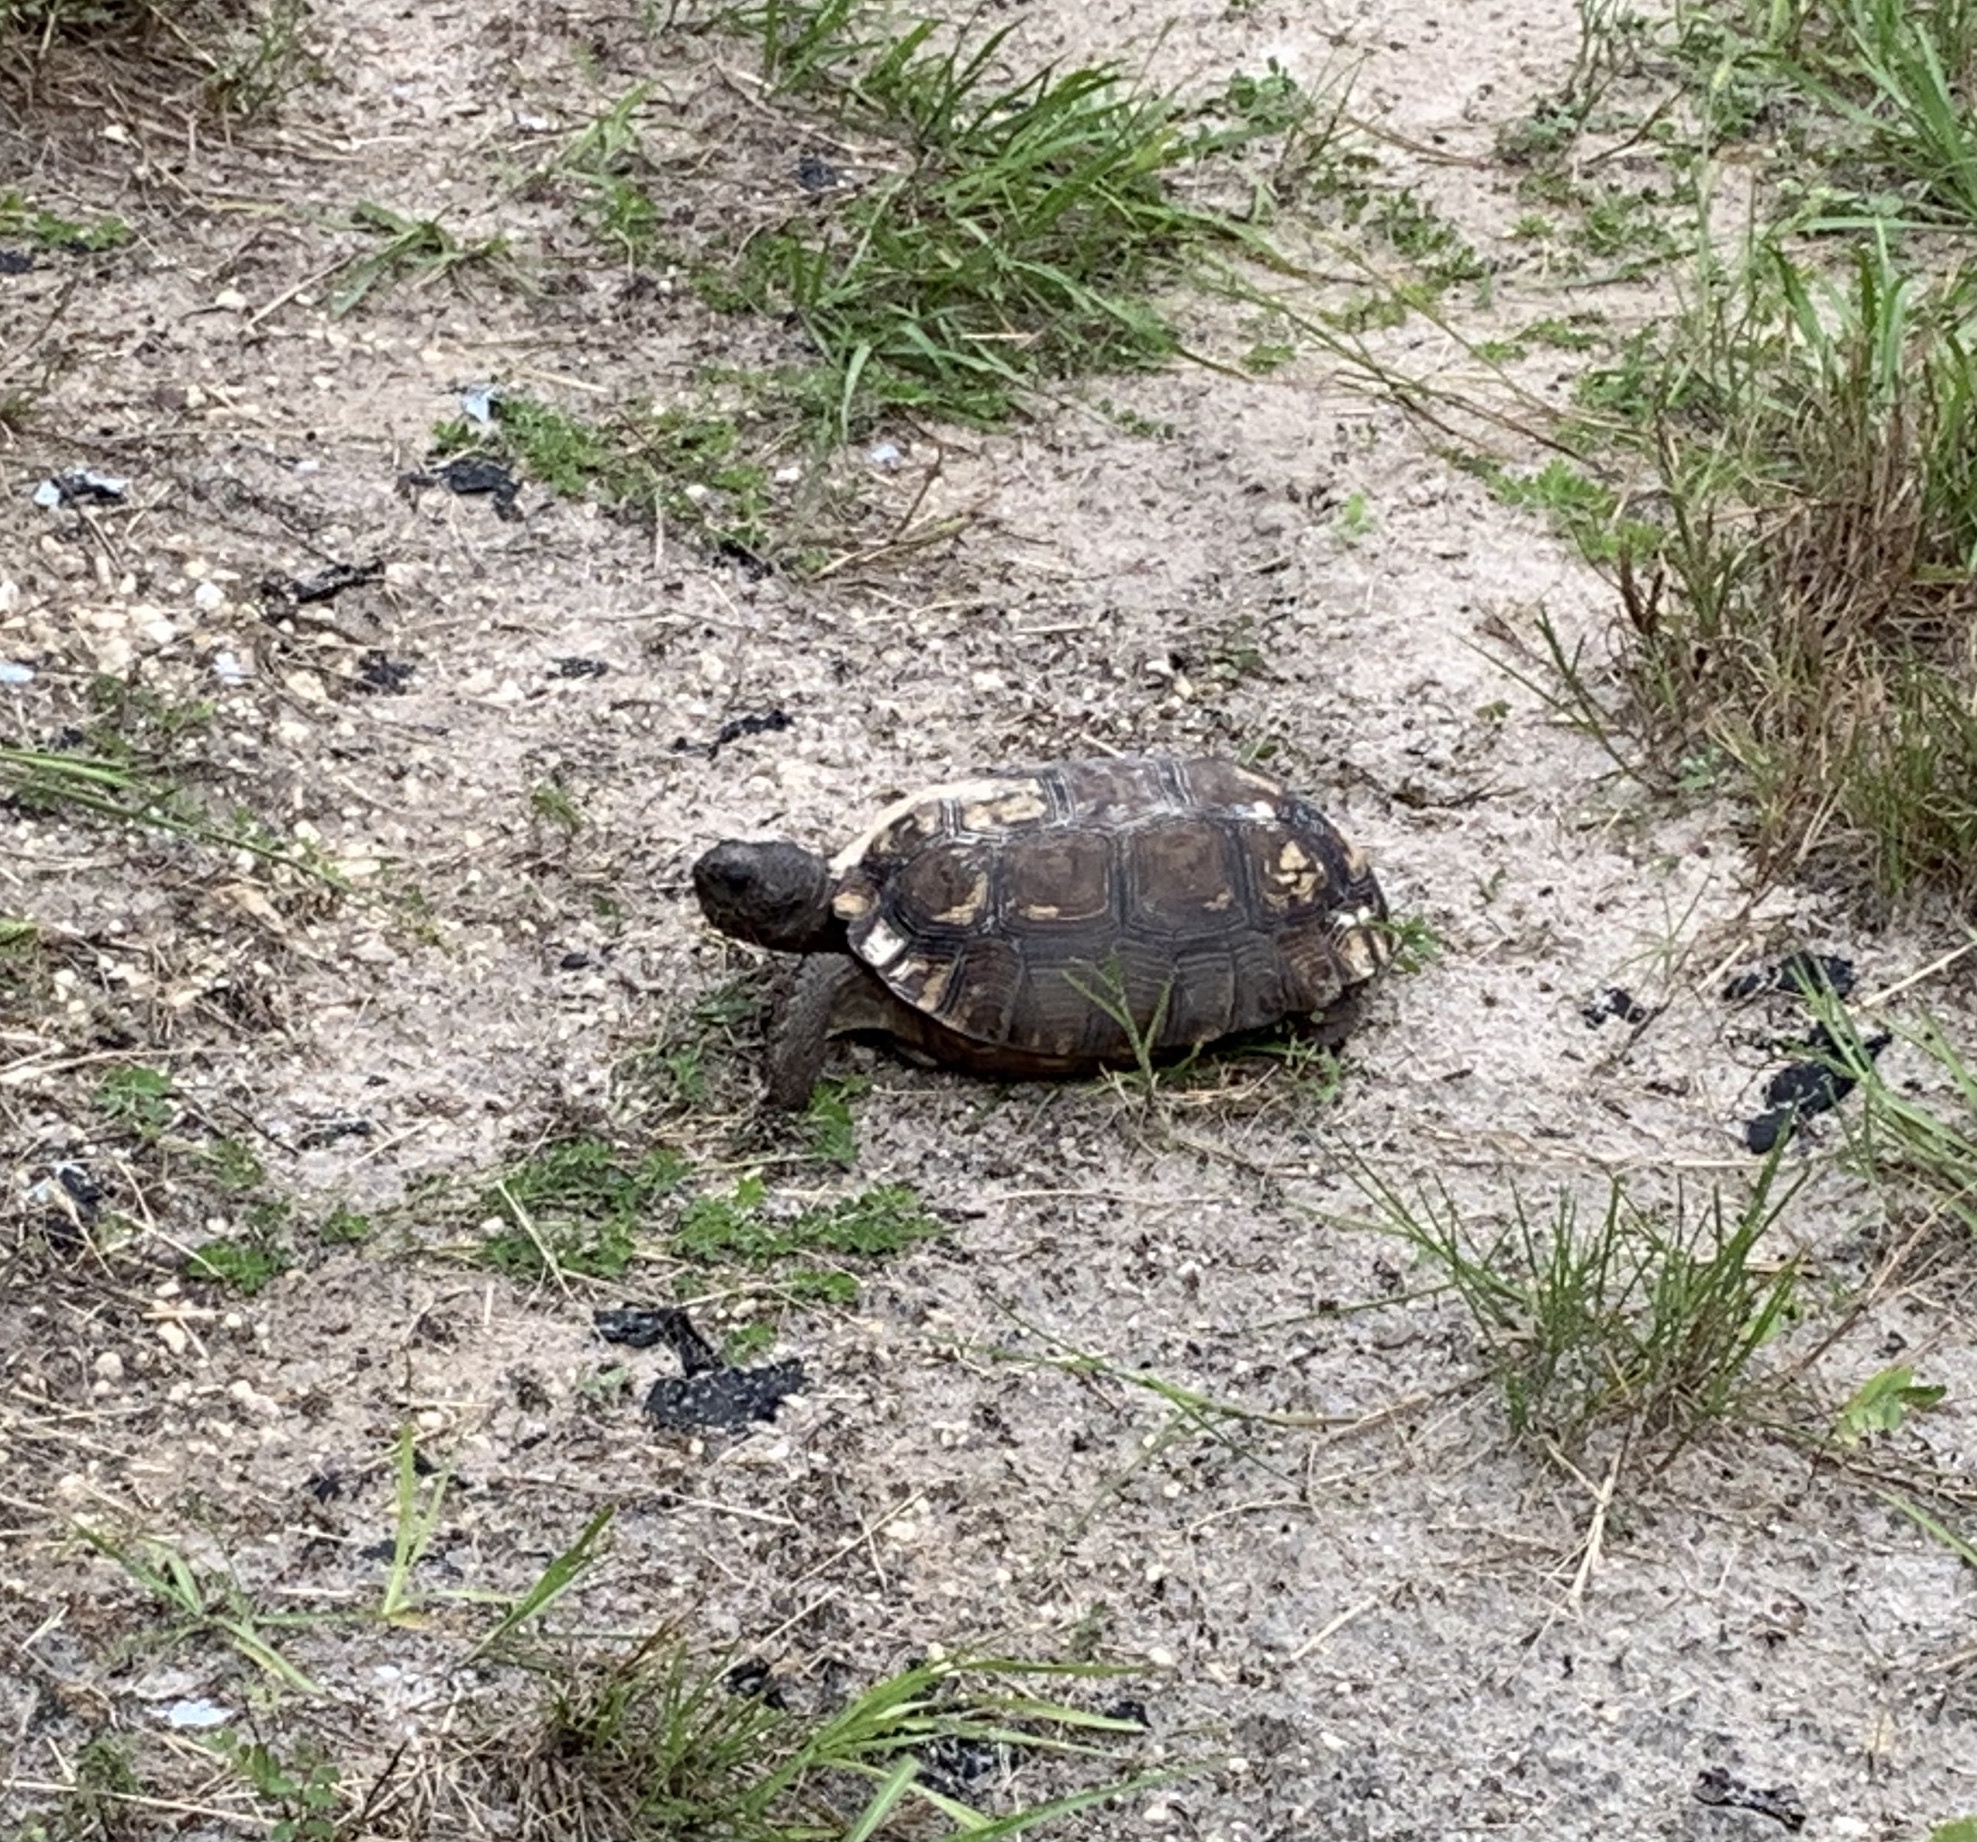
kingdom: Animalia
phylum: Chordata
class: Testudines
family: Testudinidae
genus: Gopherus
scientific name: Gopherus polyphemus
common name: Florida gopher tortoise
